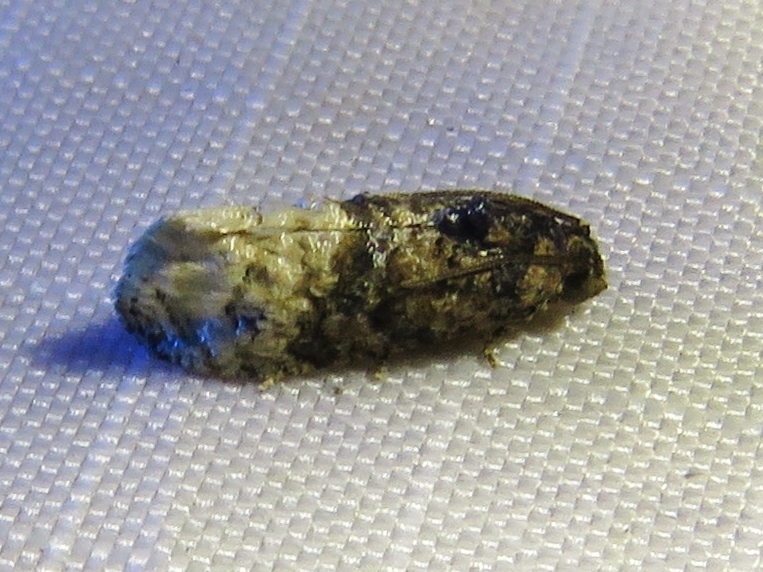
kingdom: Animalia
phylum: Arthropoda
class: Insecta
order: Lepidoptera
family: Tortricidae
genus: Ecdytolopha
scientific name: Ecdytolopha mana
